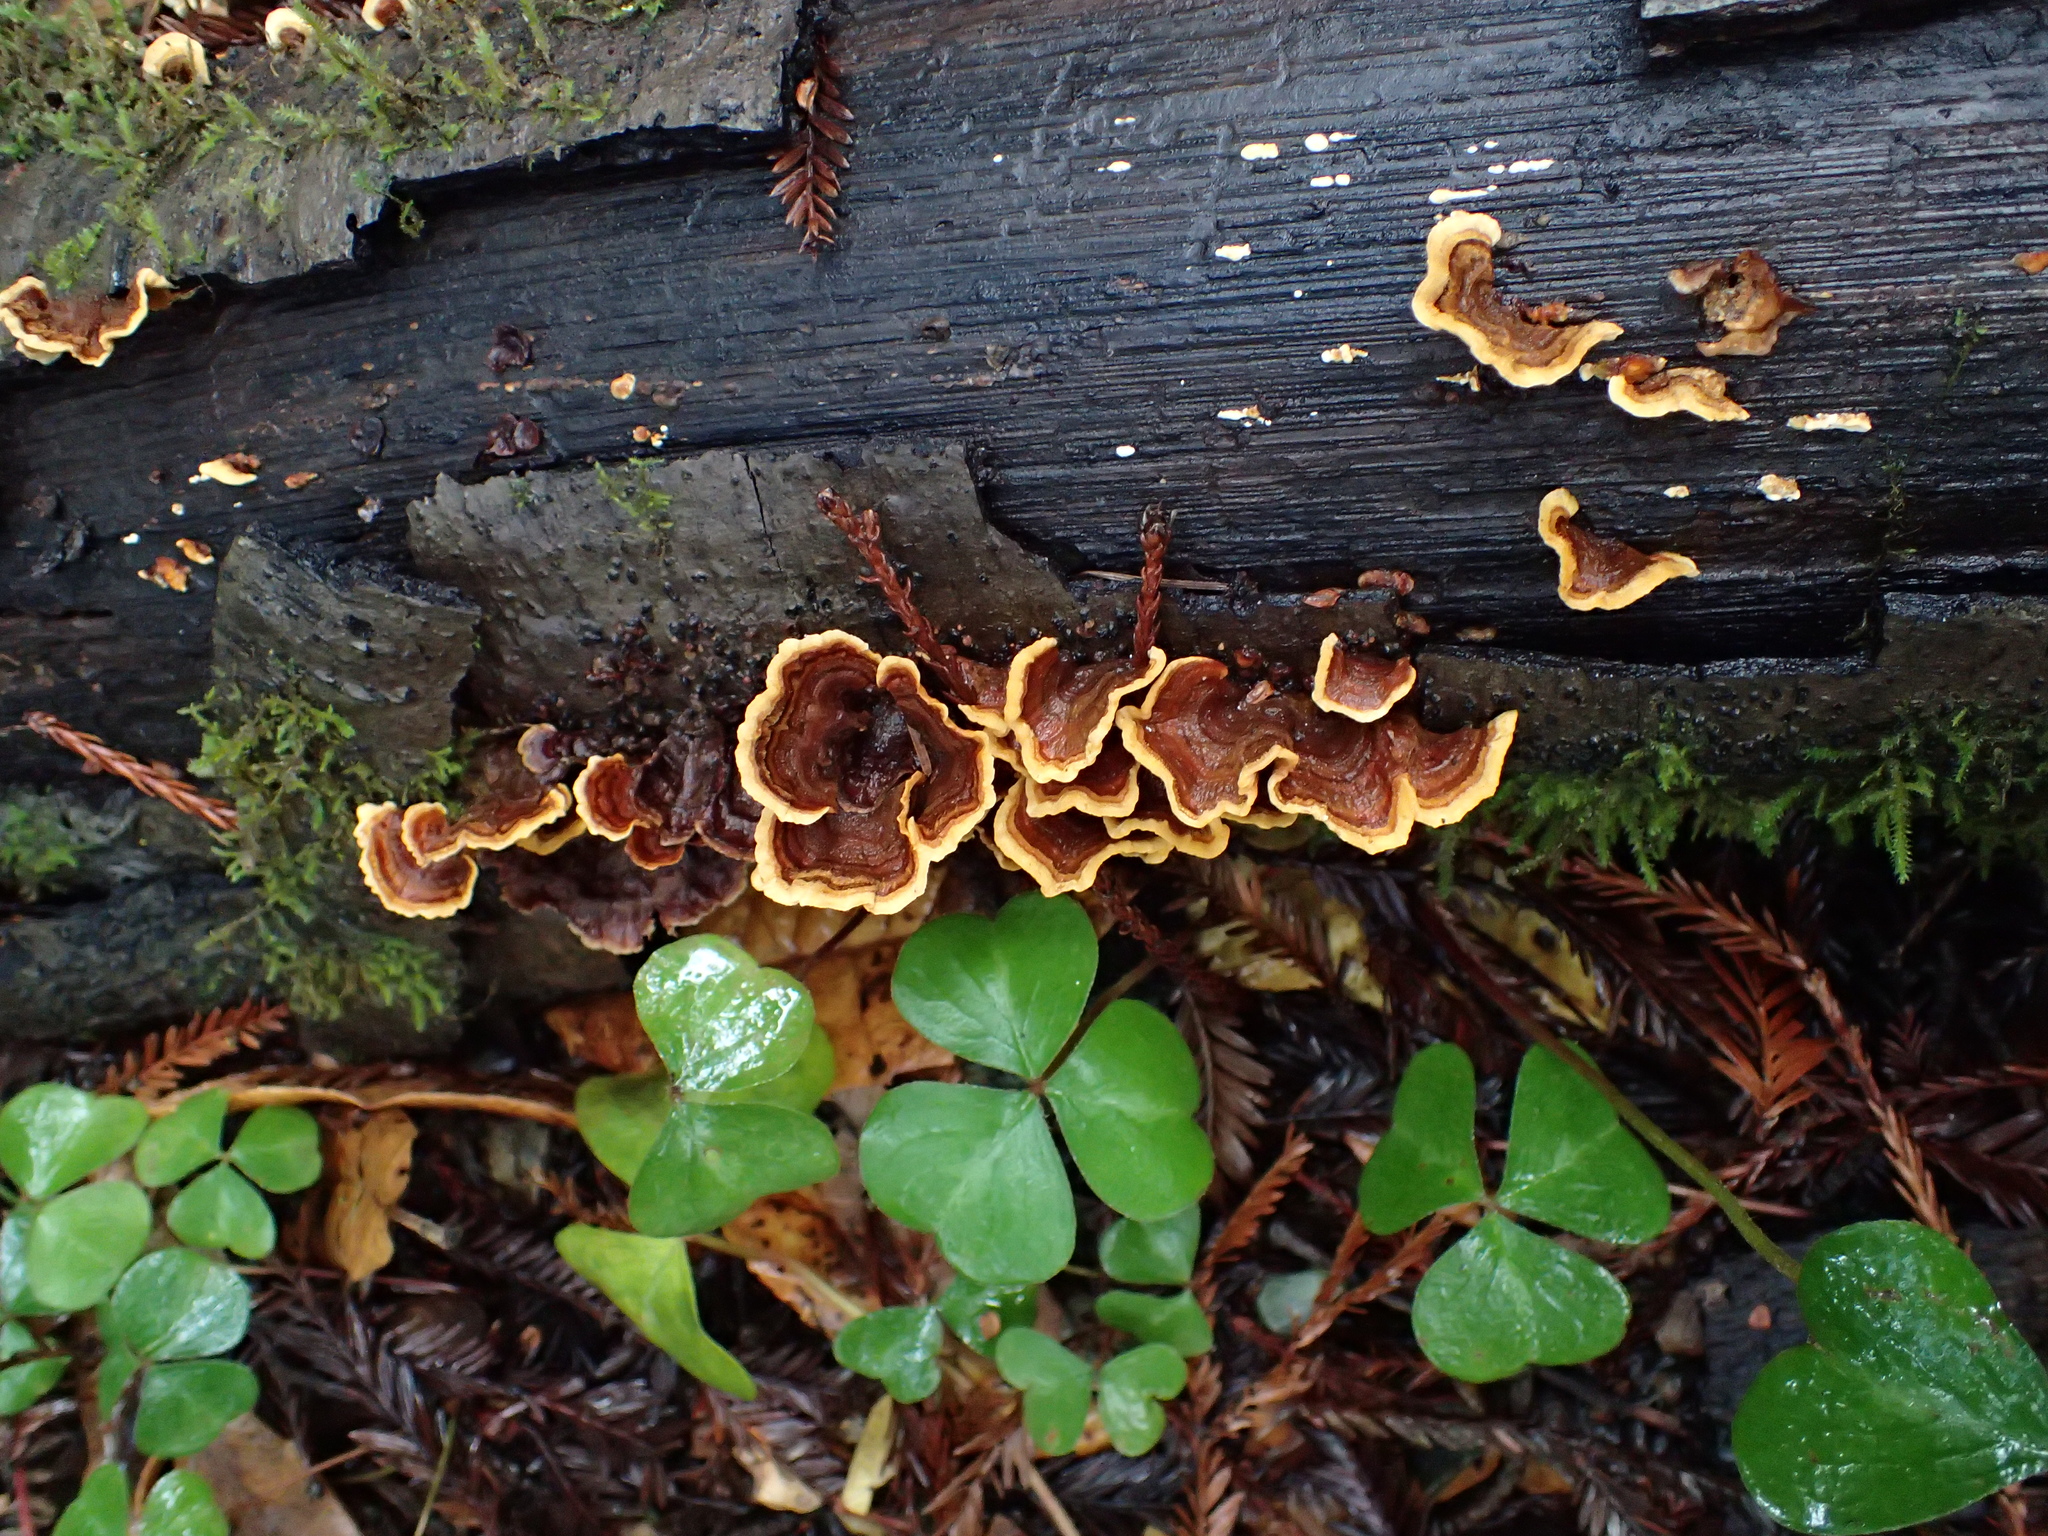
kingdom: Fungi
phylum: Basidiomycota
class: Agaricomycetes
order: Russulales
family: Stereaceae
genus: Stereum
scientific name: Stereum hirsutum
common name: Hairy curtain crust
